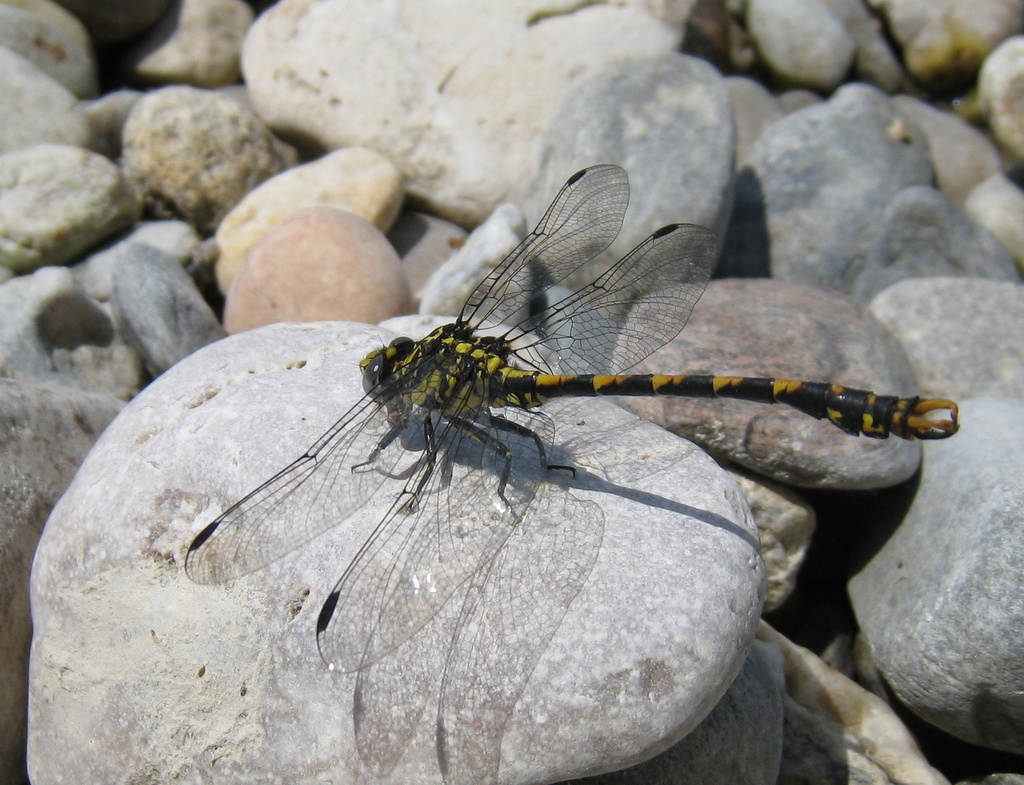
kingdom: Animalia
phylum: Arthropoda
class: Insecta
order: Odonata
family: Gomphidae
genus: Onychogomphus
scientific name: Onychogomphus uncatus
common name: Large pincertail
